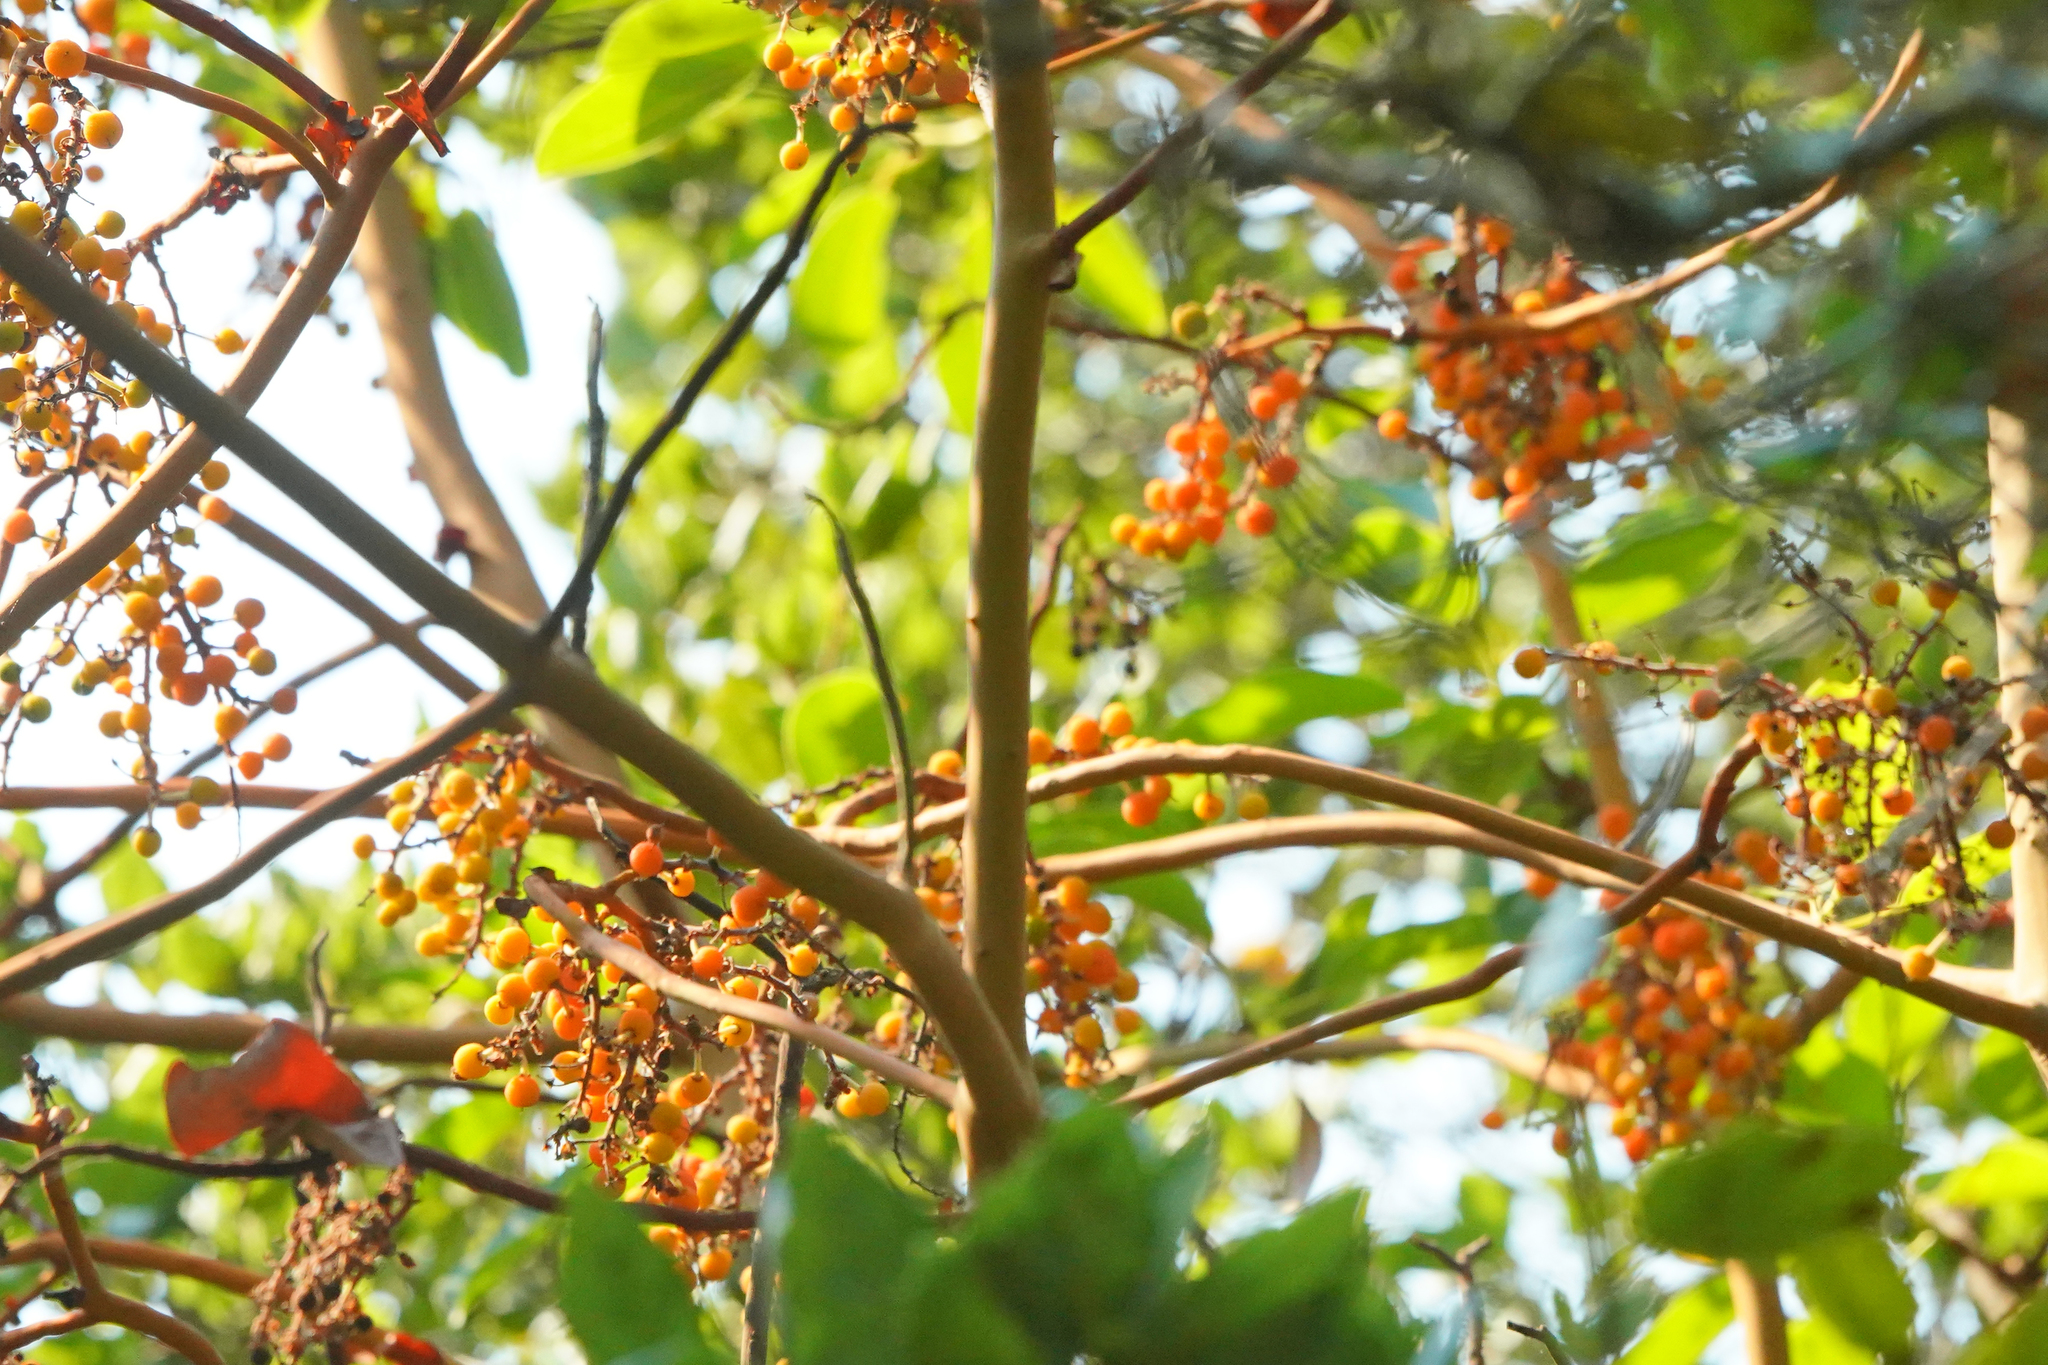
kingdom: Plantae
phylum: Tracheophyta
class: Magnoliopsida
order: Ericales
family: Ericaceae
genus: Arbutus
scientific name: Arbutus menziesii
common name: Pacific madrone
